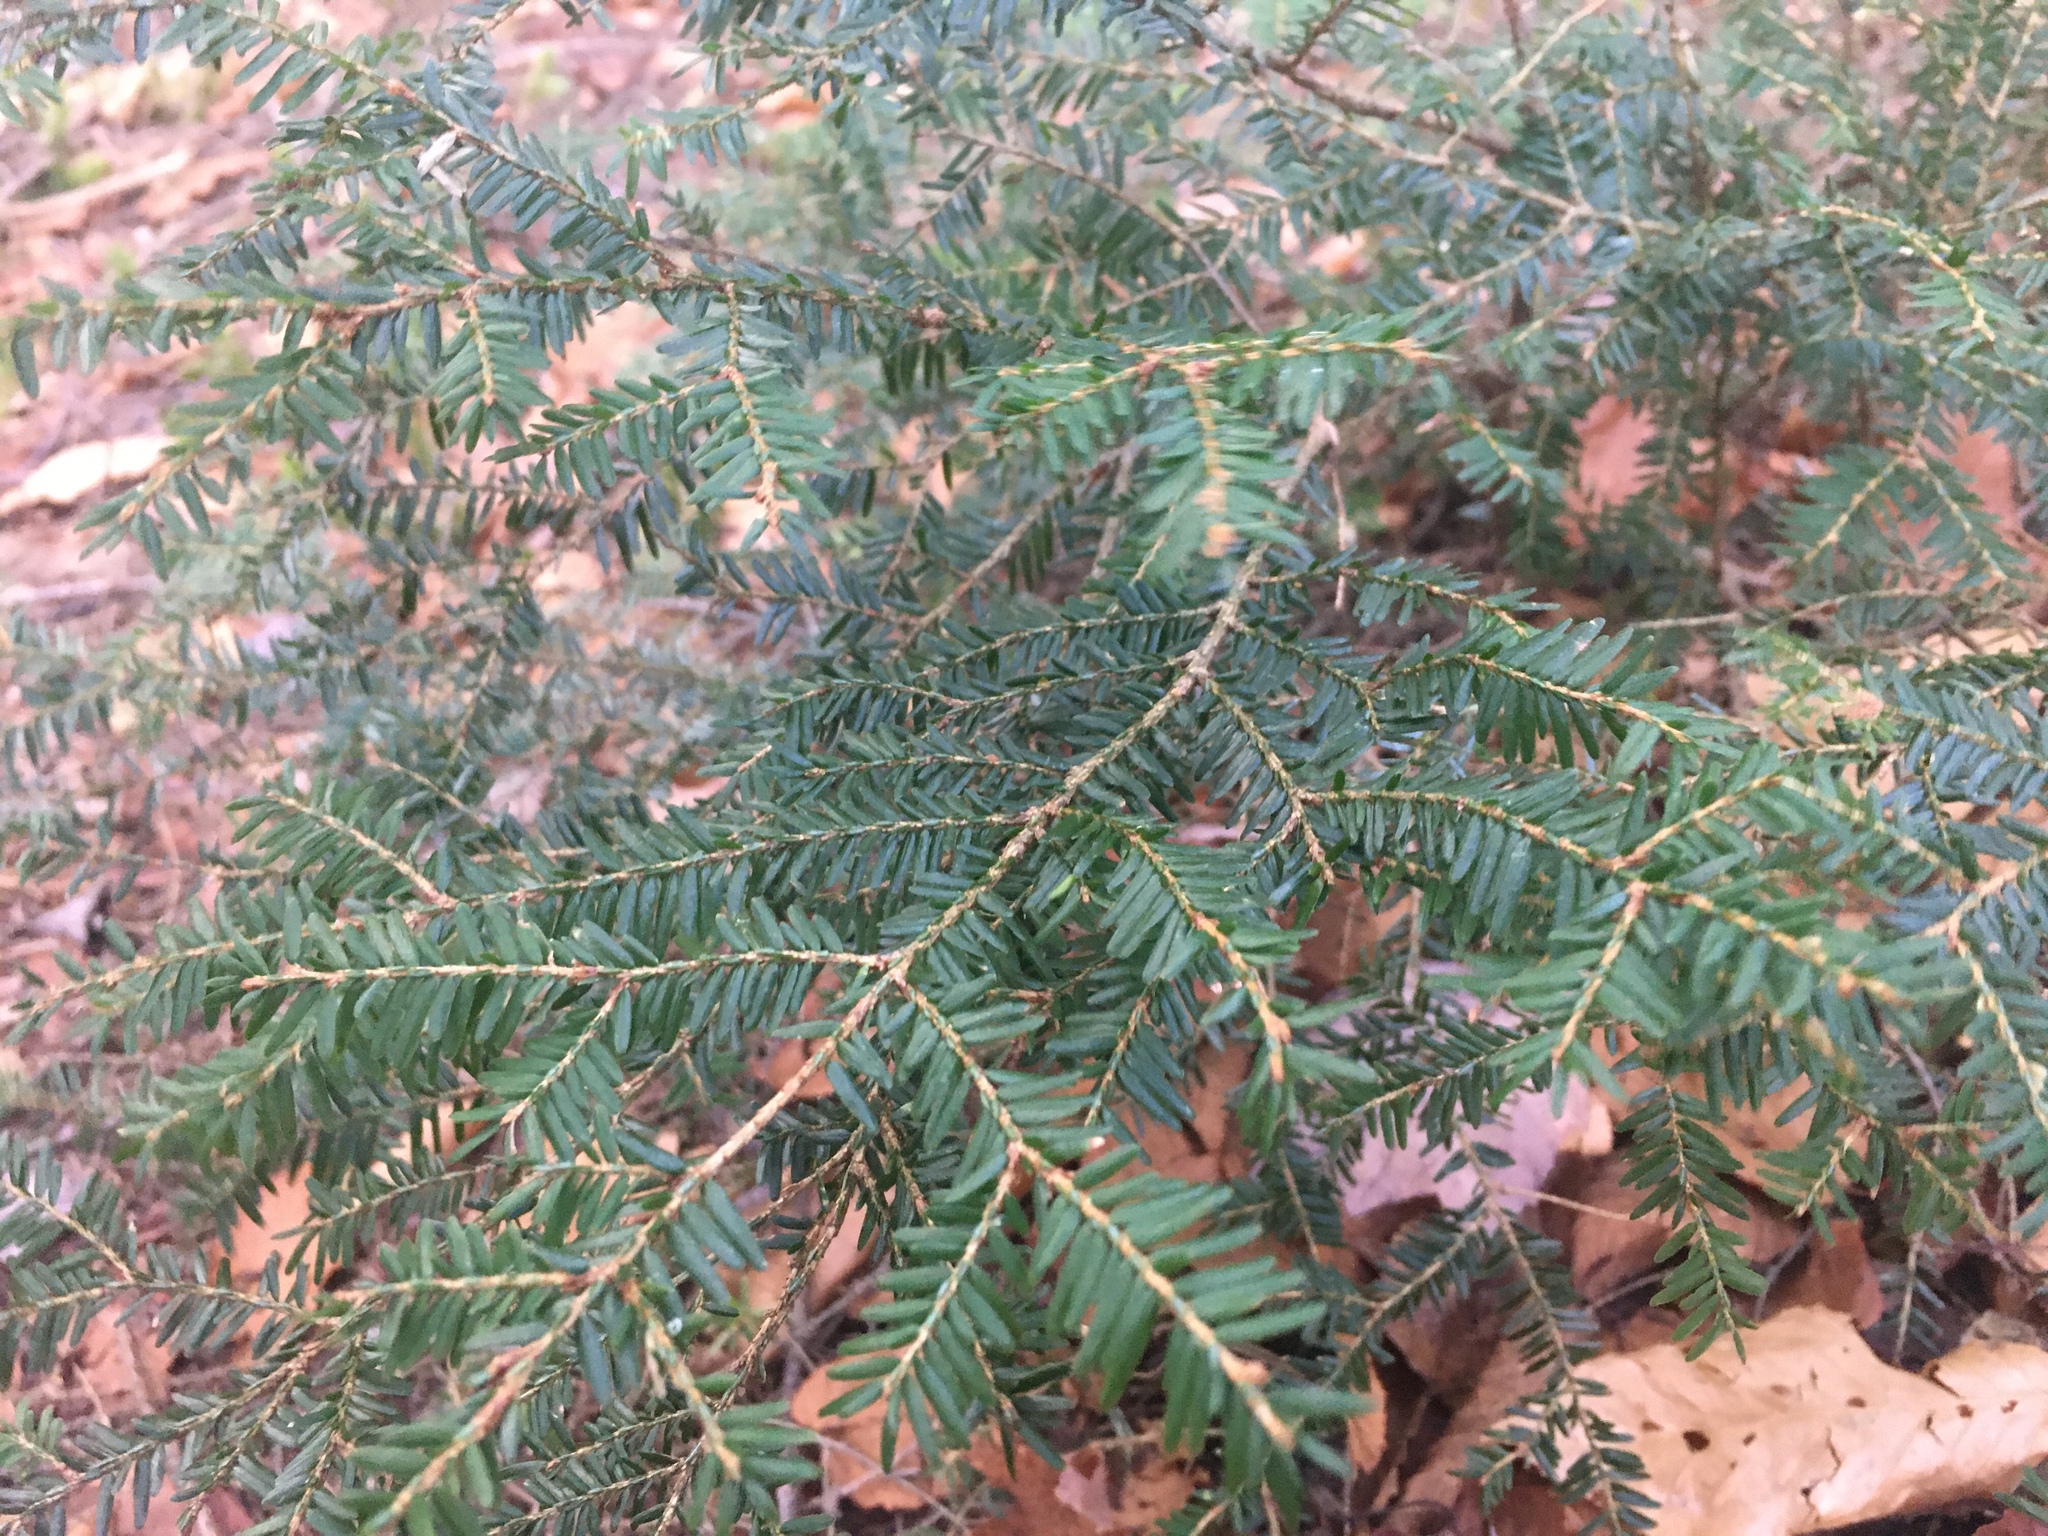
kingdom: Plantae
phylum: Tracheophyta
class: Pinopsida
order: Pinales
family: Pinaceae
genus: Tsuga
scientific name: Tsuga canadensis
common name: Eastern hemlock
